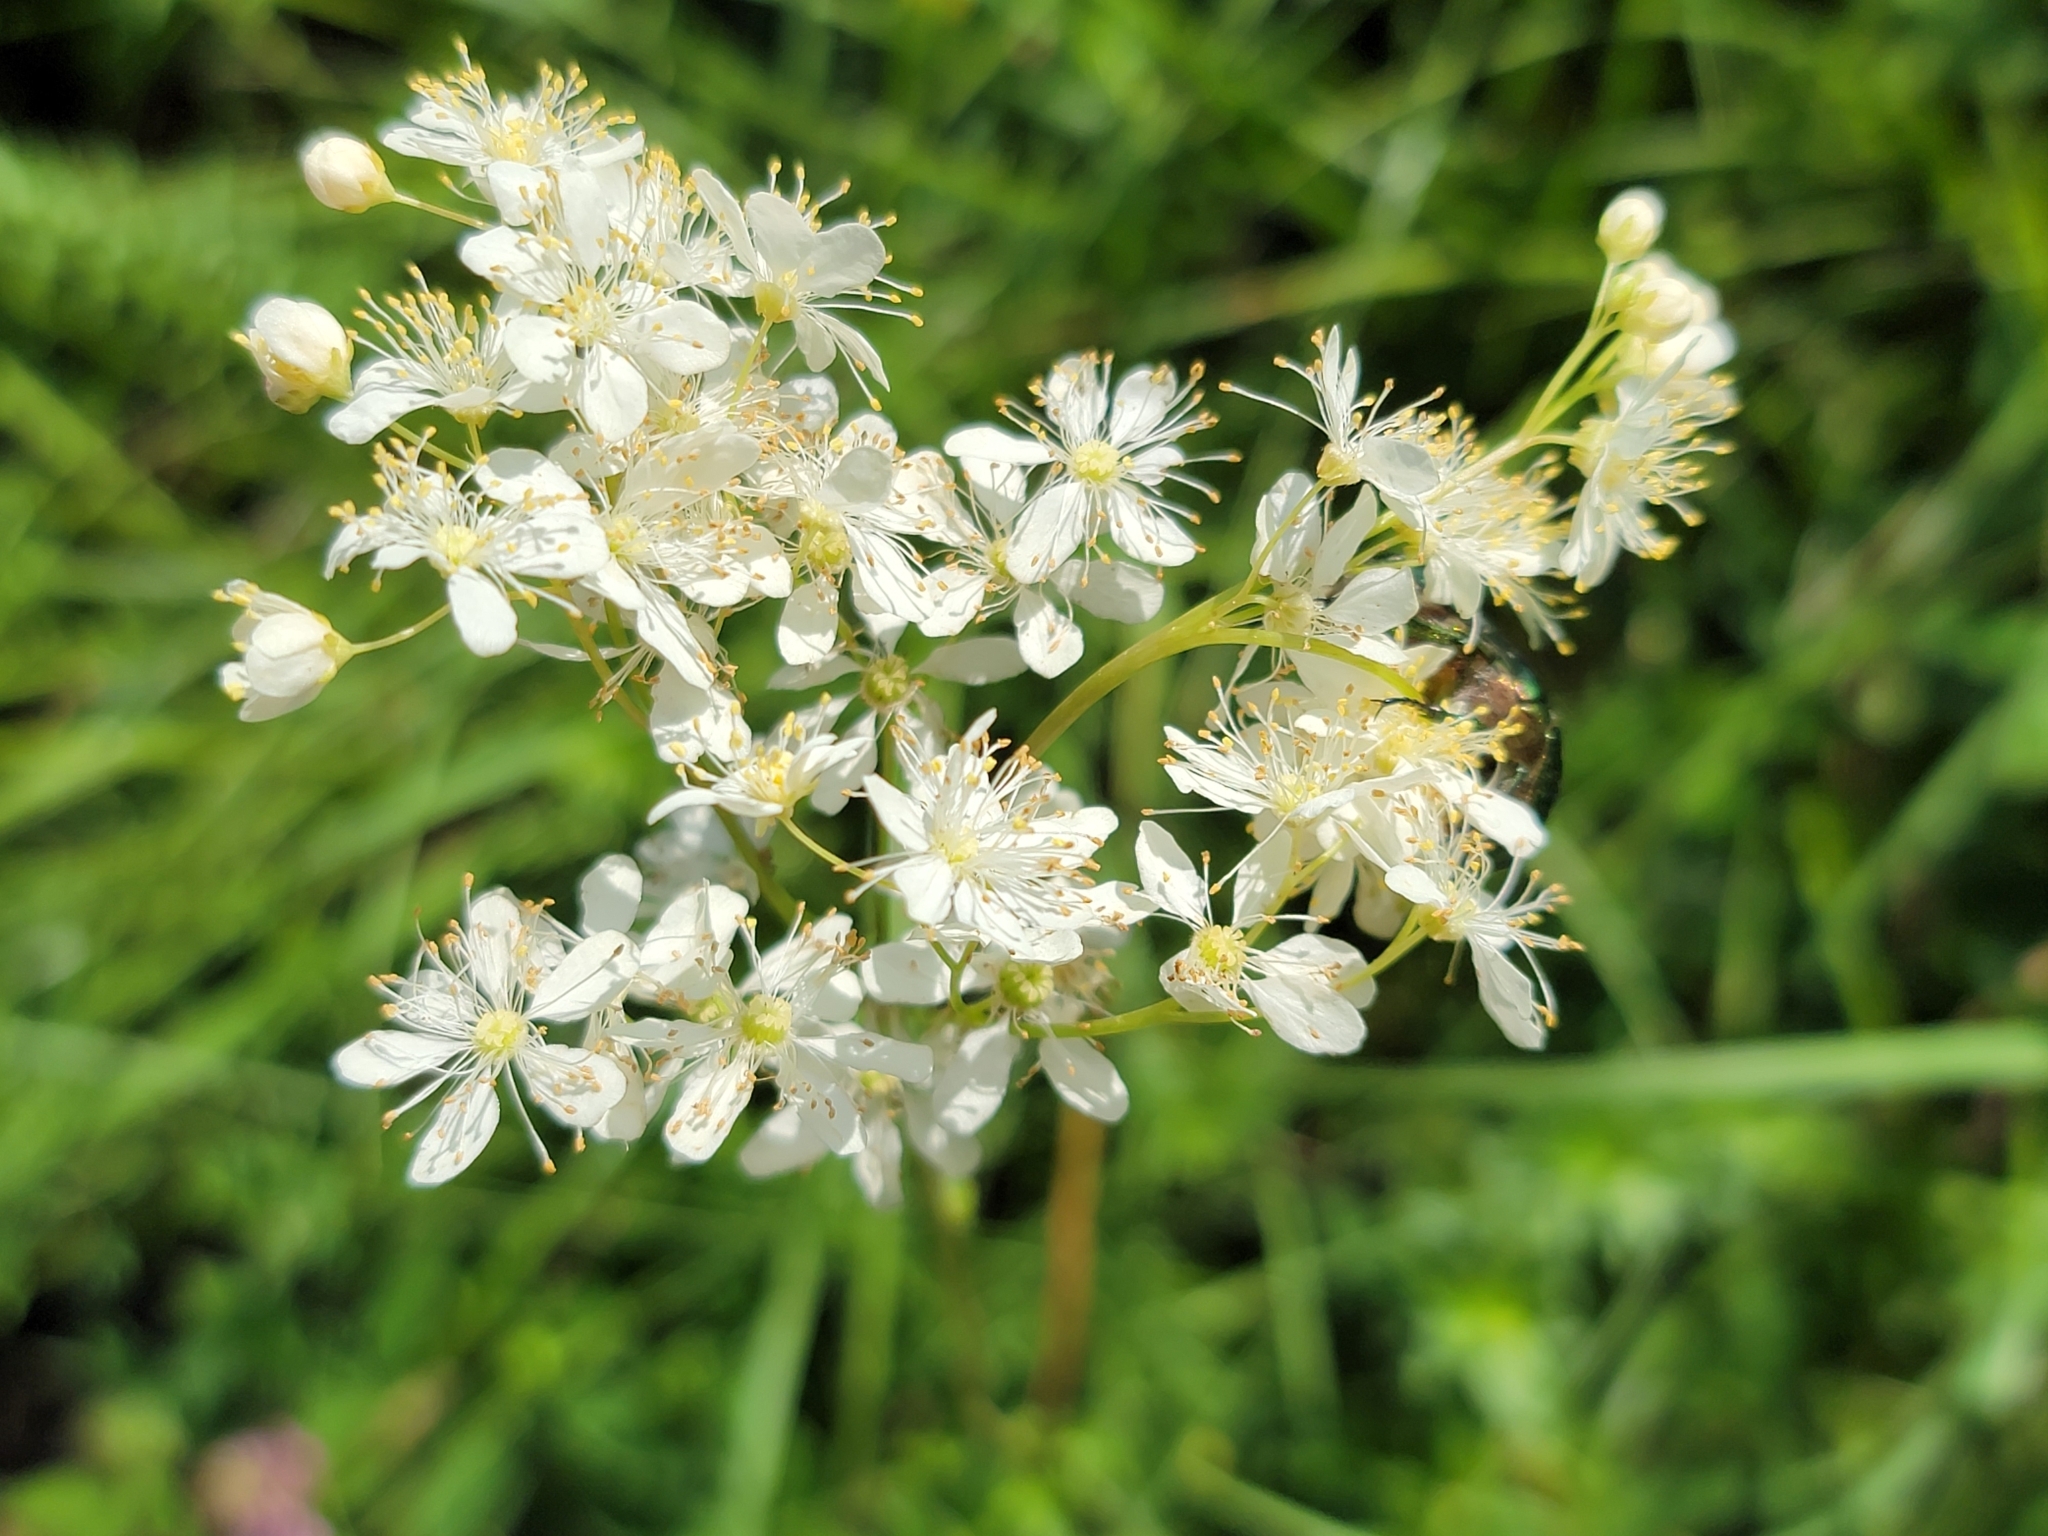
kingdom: Plantae
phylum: Tracheophyta
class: Magnoliopsida
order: Rosales
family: Rosaceae
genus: Filipendula
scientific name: Filipendula vulgaris
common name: Dropwort
